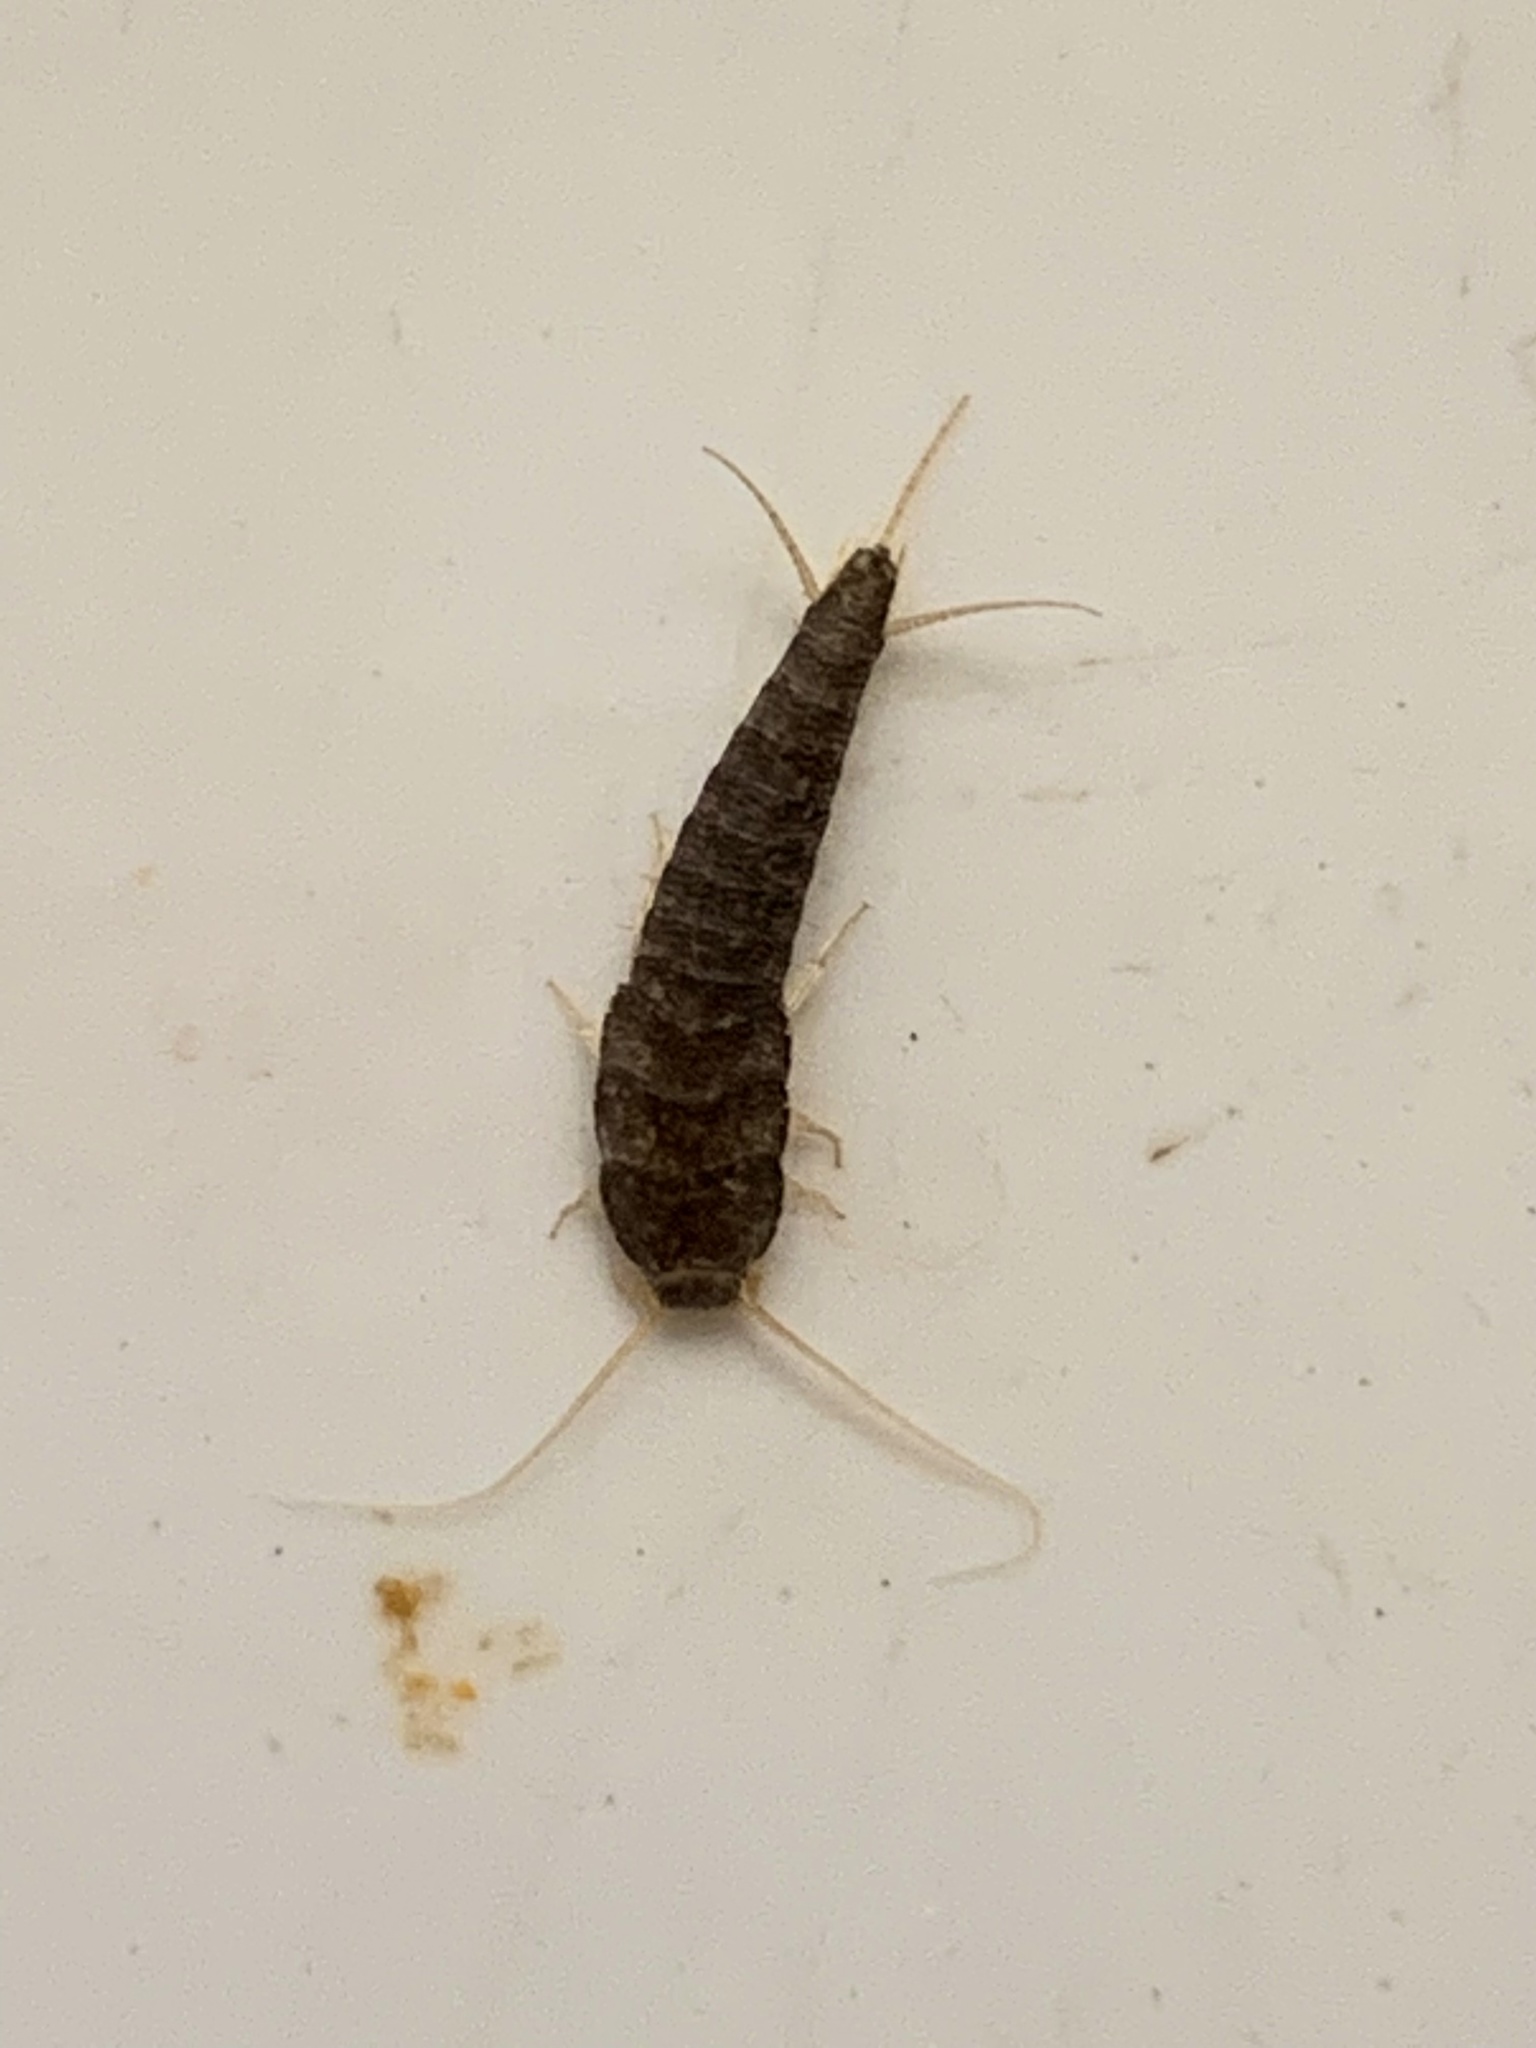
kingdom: Animalia
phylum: Arthropoda
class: Insecta
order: Zygentoma
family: Lepismatidae
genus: Lepisma
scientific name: Lepisma saccharinum
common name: Silverfish
